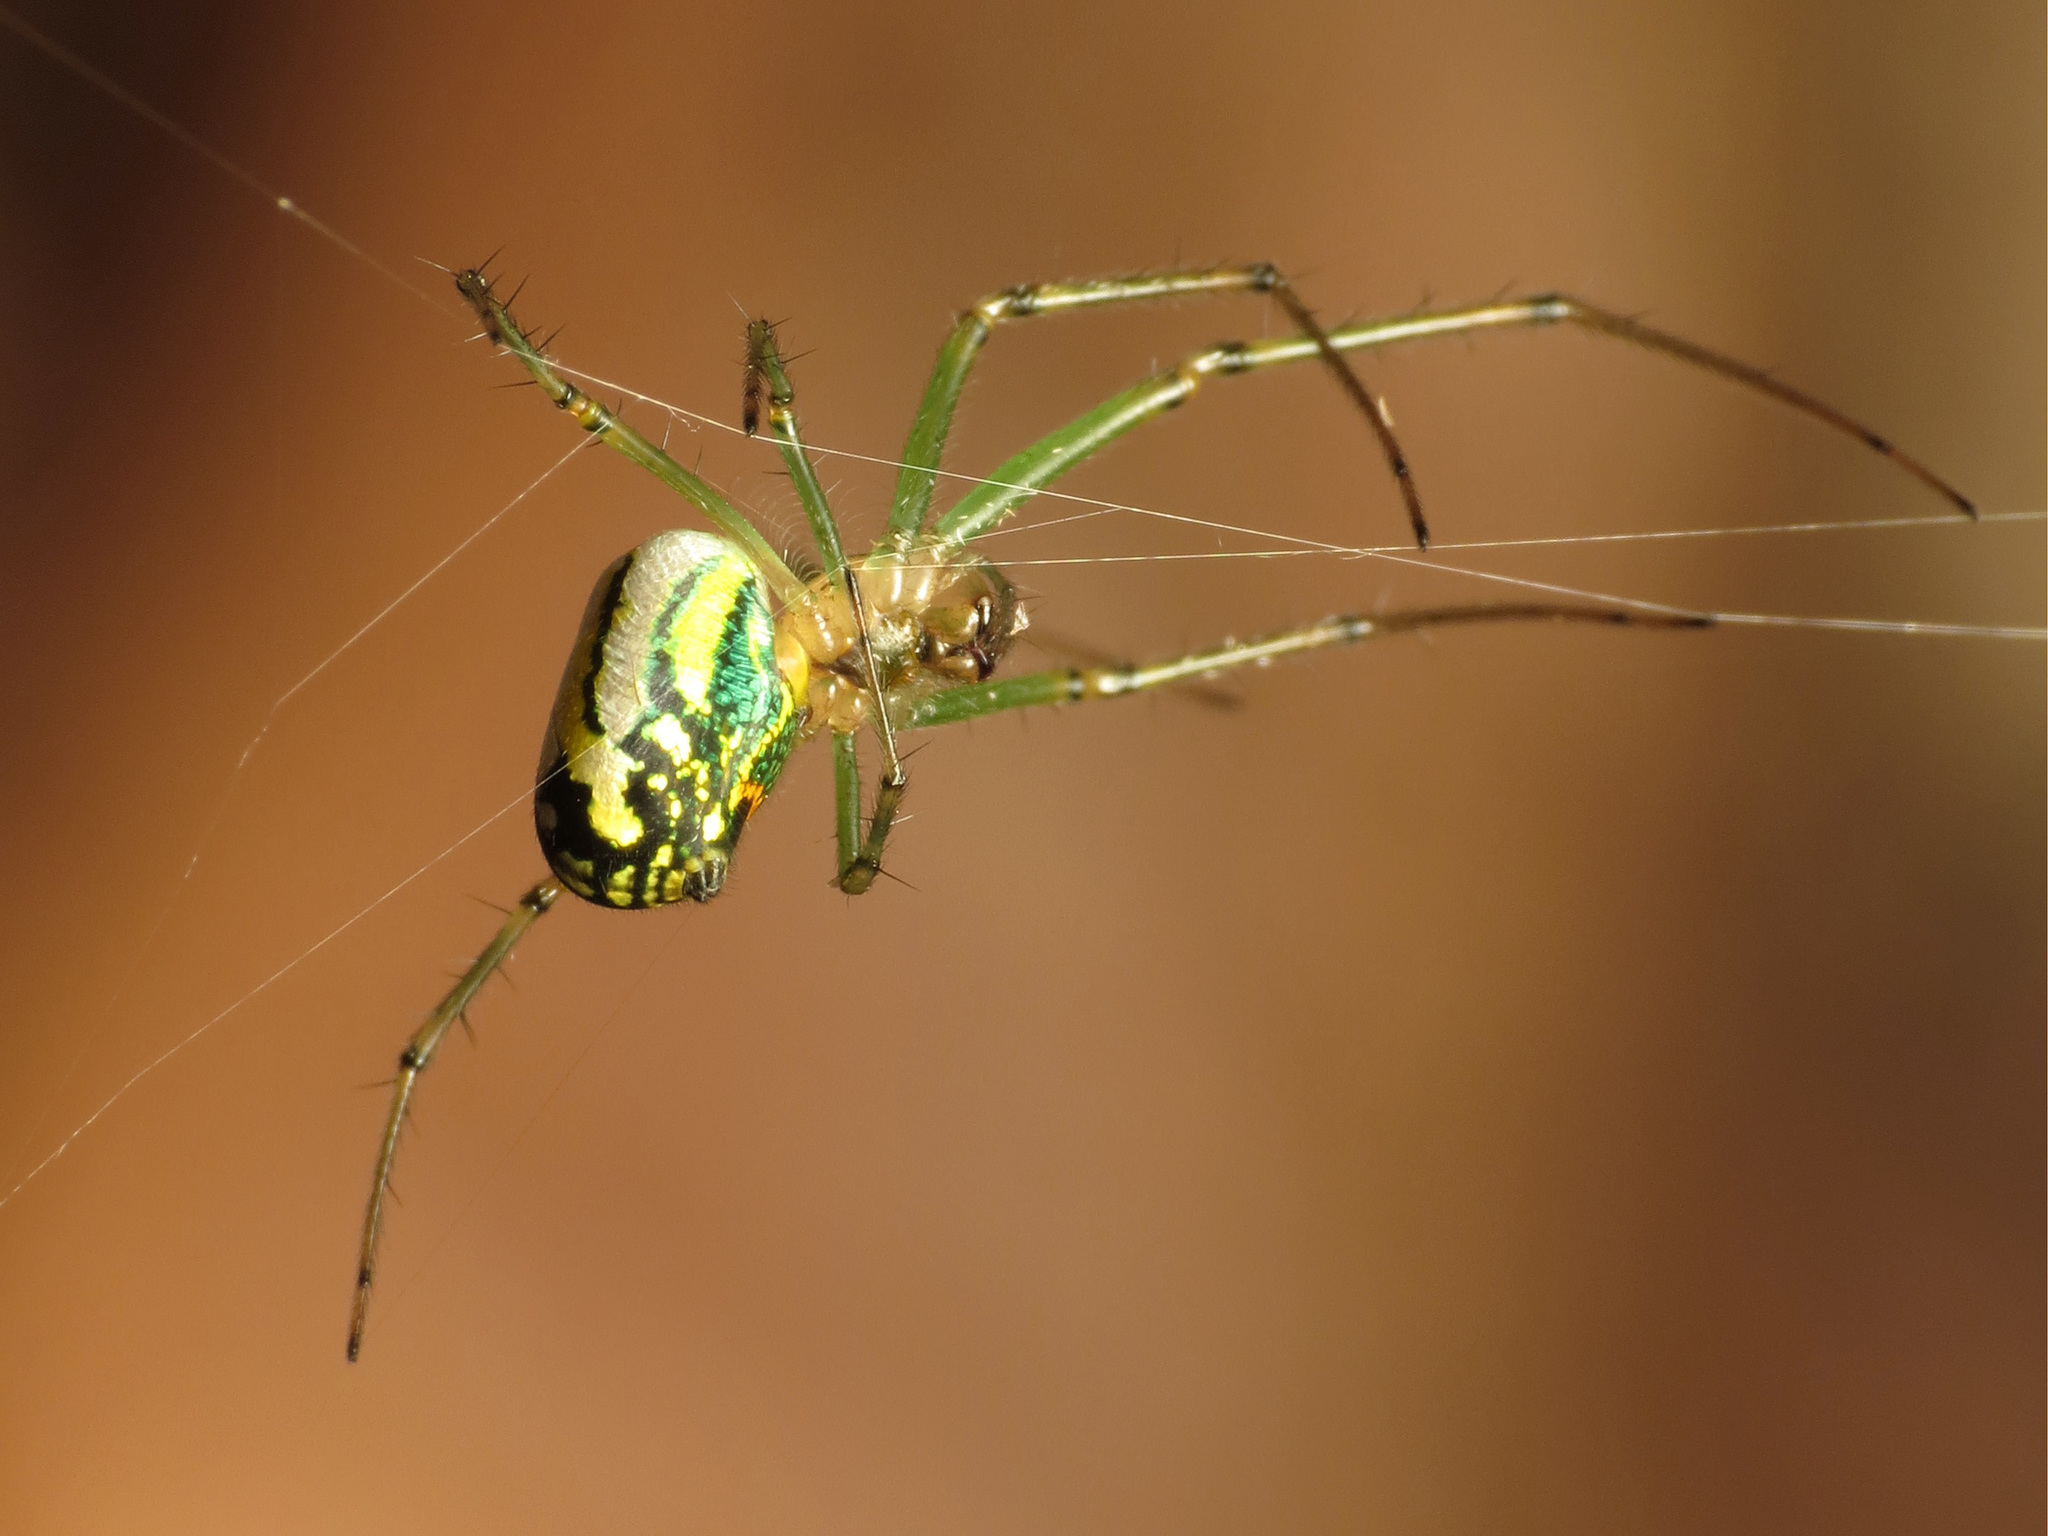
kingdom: Animalia
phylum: Arthropoda
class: Arachnida
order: Araneae
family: Tetragnathidae
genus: Leucauge
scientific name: Leucauge venusta
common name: Longjawed orb weavers
